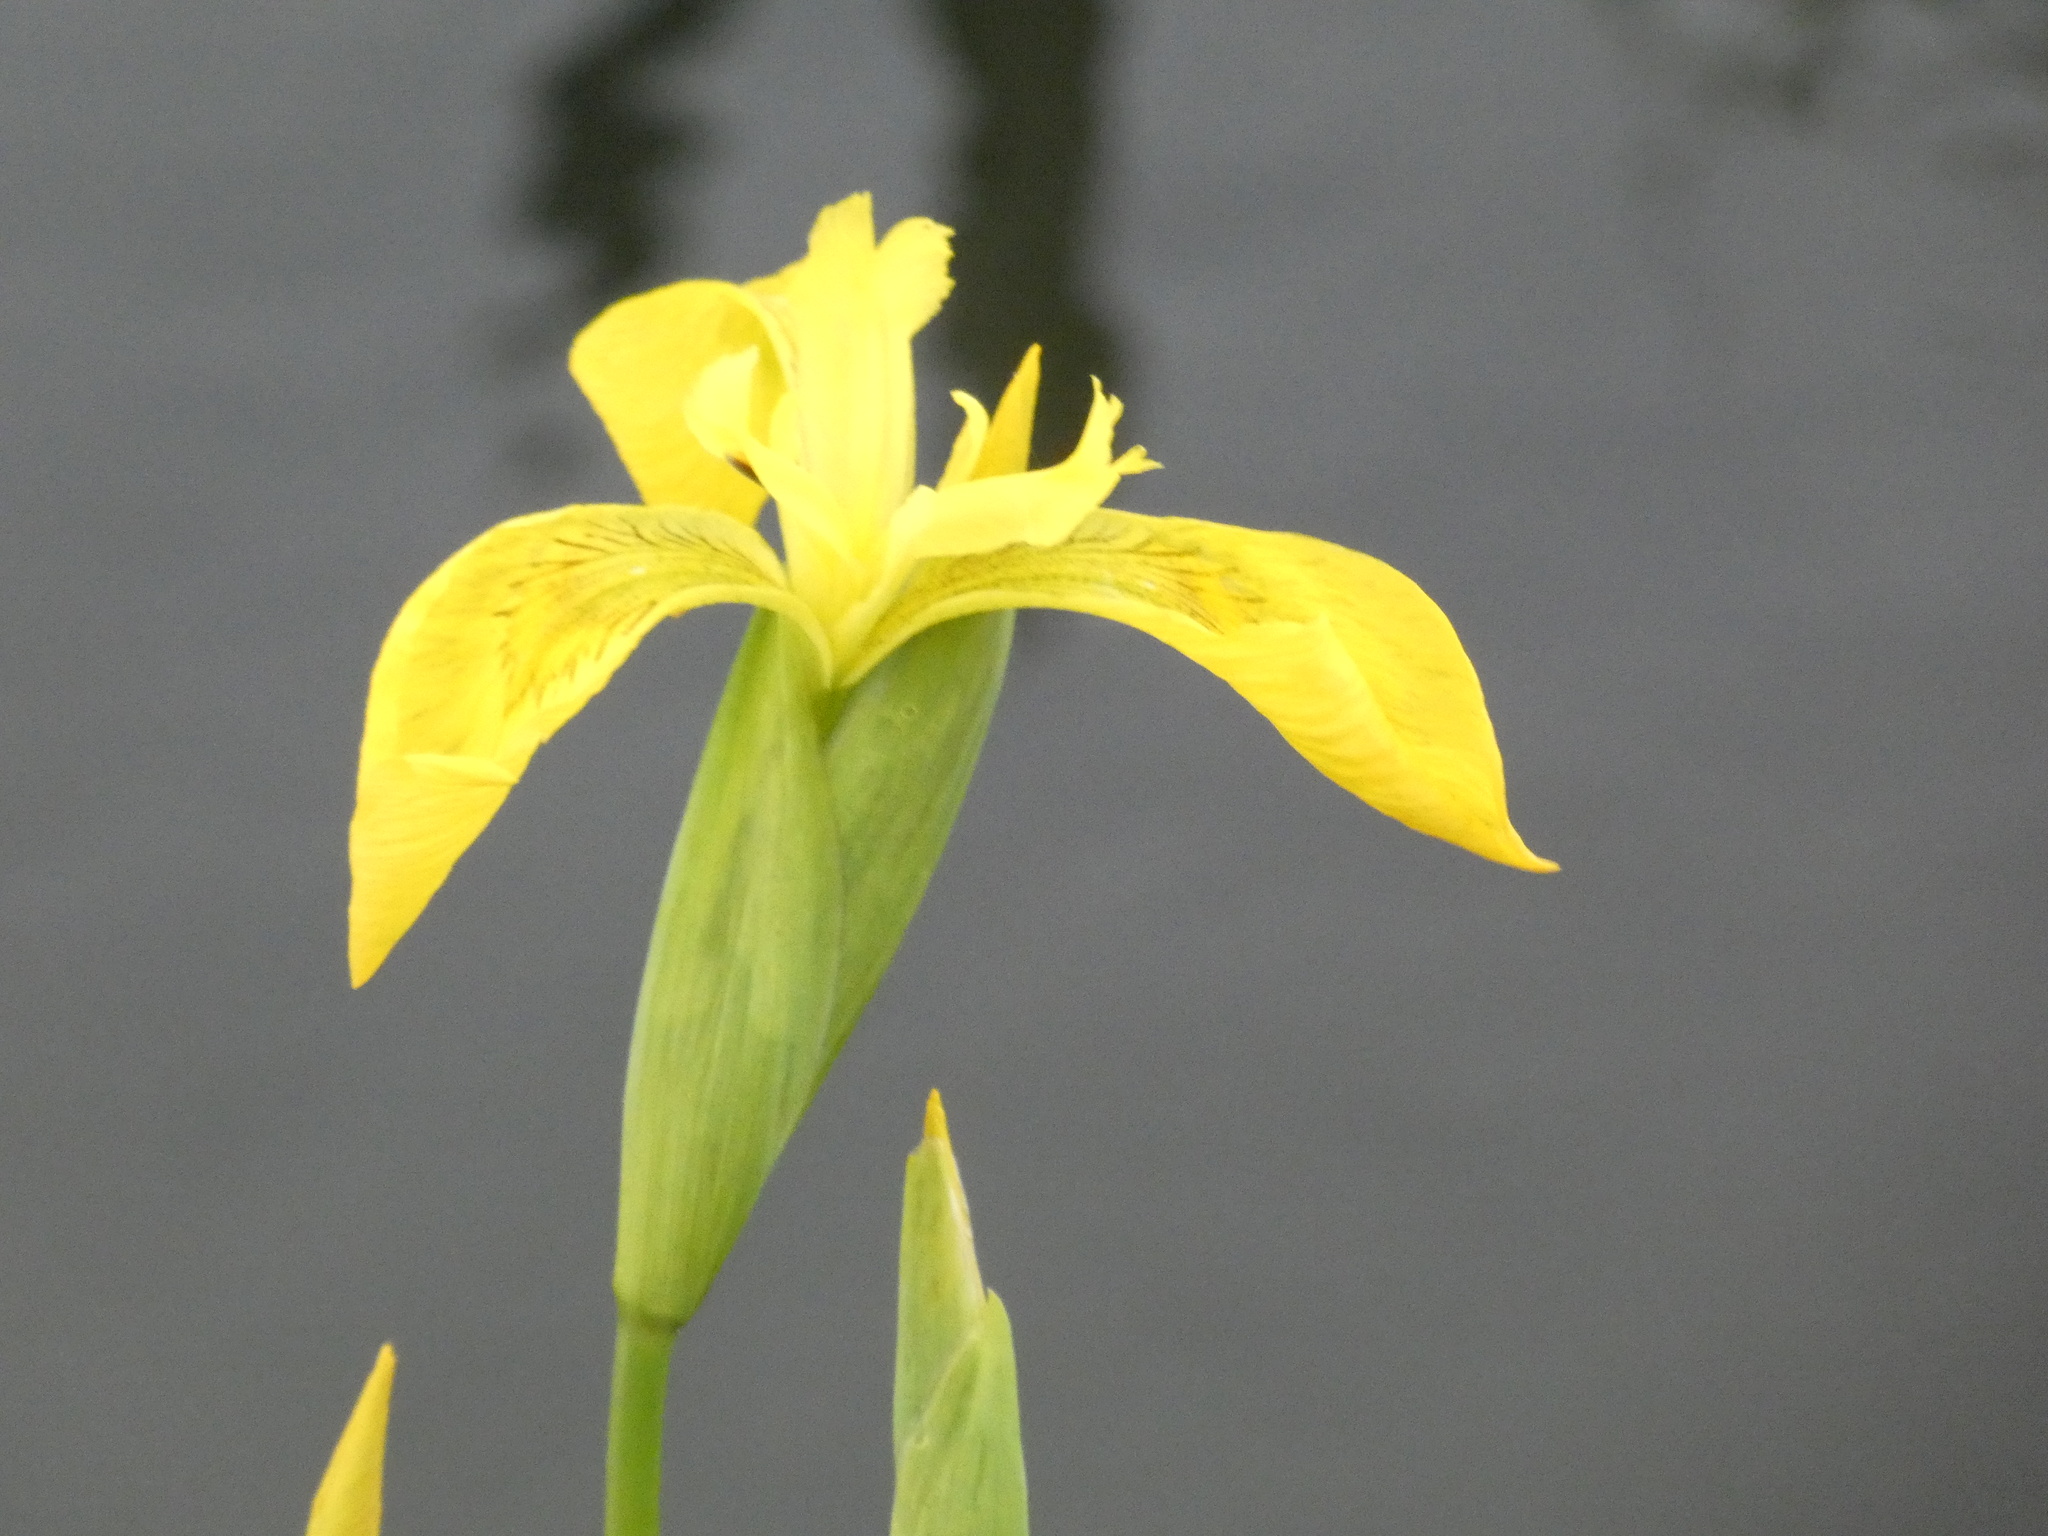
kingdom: Plantae
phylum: Tracheophyta
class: Liliopsida
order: Asparagales
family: Iridaceae
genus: Iris
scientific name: Iris pseudacorus
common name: Yellow flag
